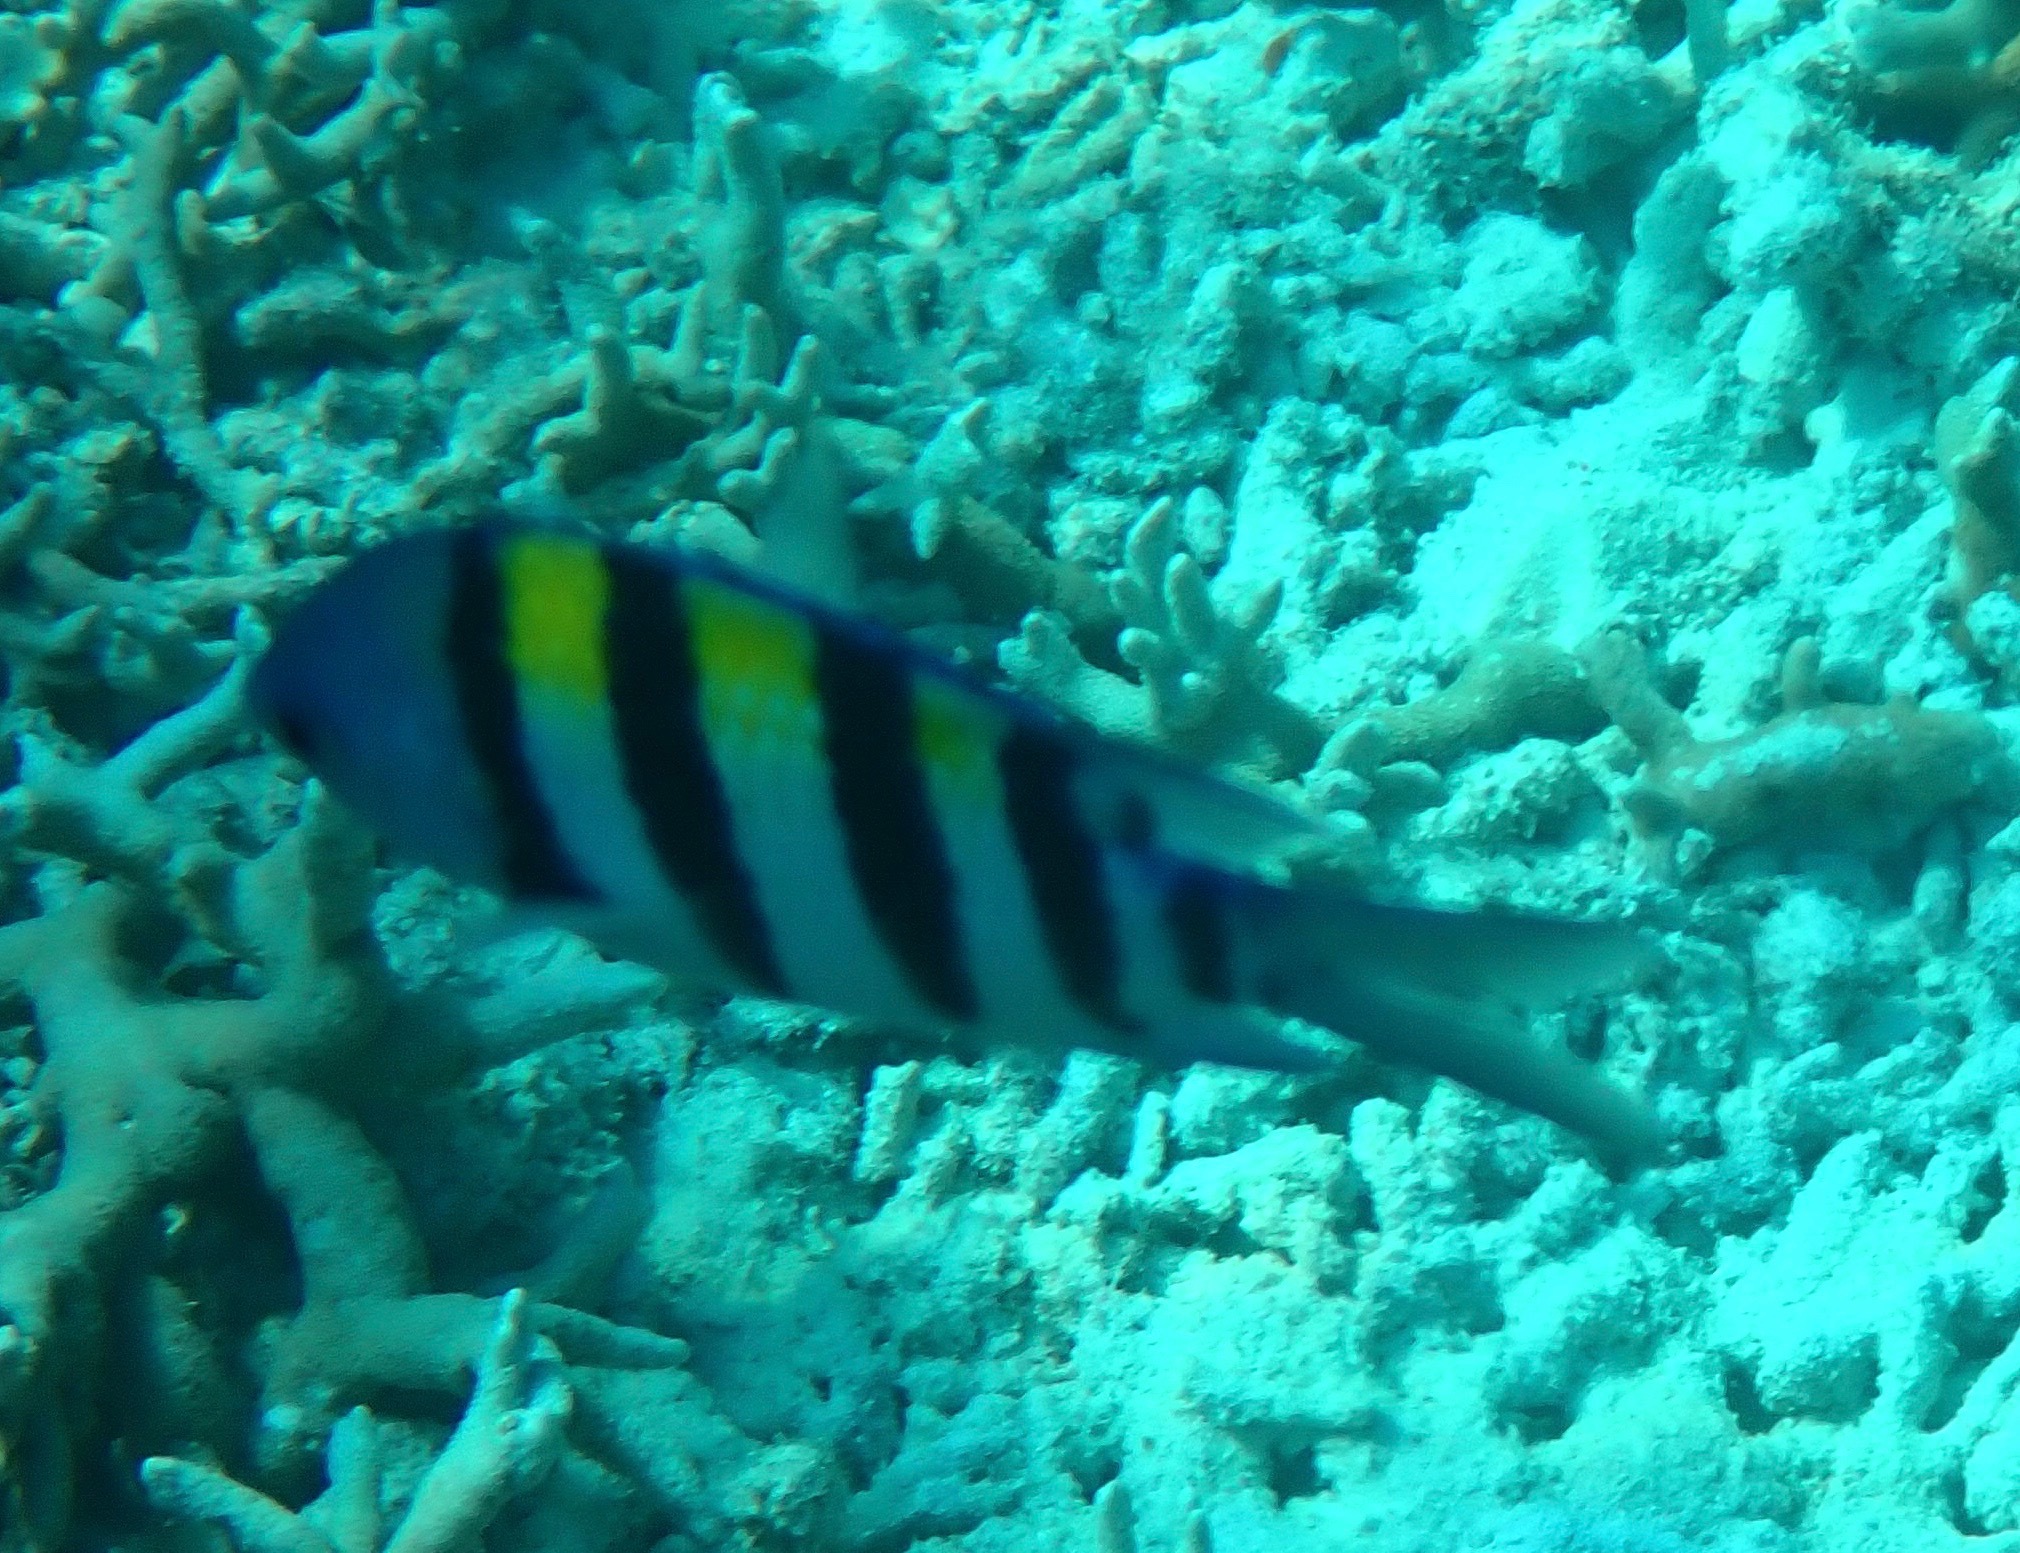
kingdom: Animalia
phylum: Chordata
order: Perciformes
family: Pomacentridae
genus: Abudefduf
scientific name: Abudefduf vaigiensis
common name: Indo-pacific sergeant
